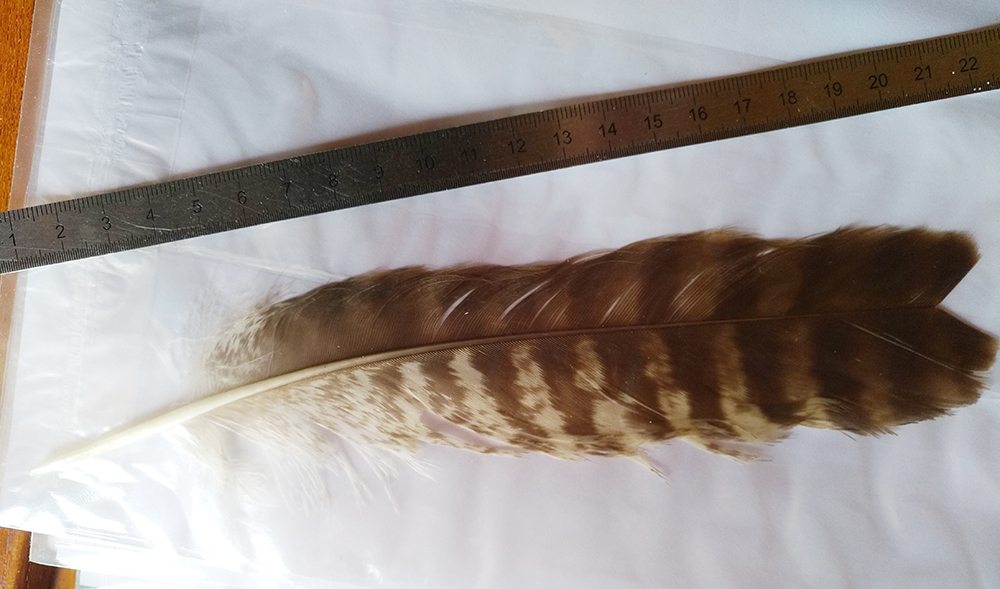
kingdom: Animalia
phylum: Chordata
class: Aves
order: Accipitriformes
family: Accipitridae
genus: Buteo
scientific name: Buteo buteo
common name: Common buzzard
